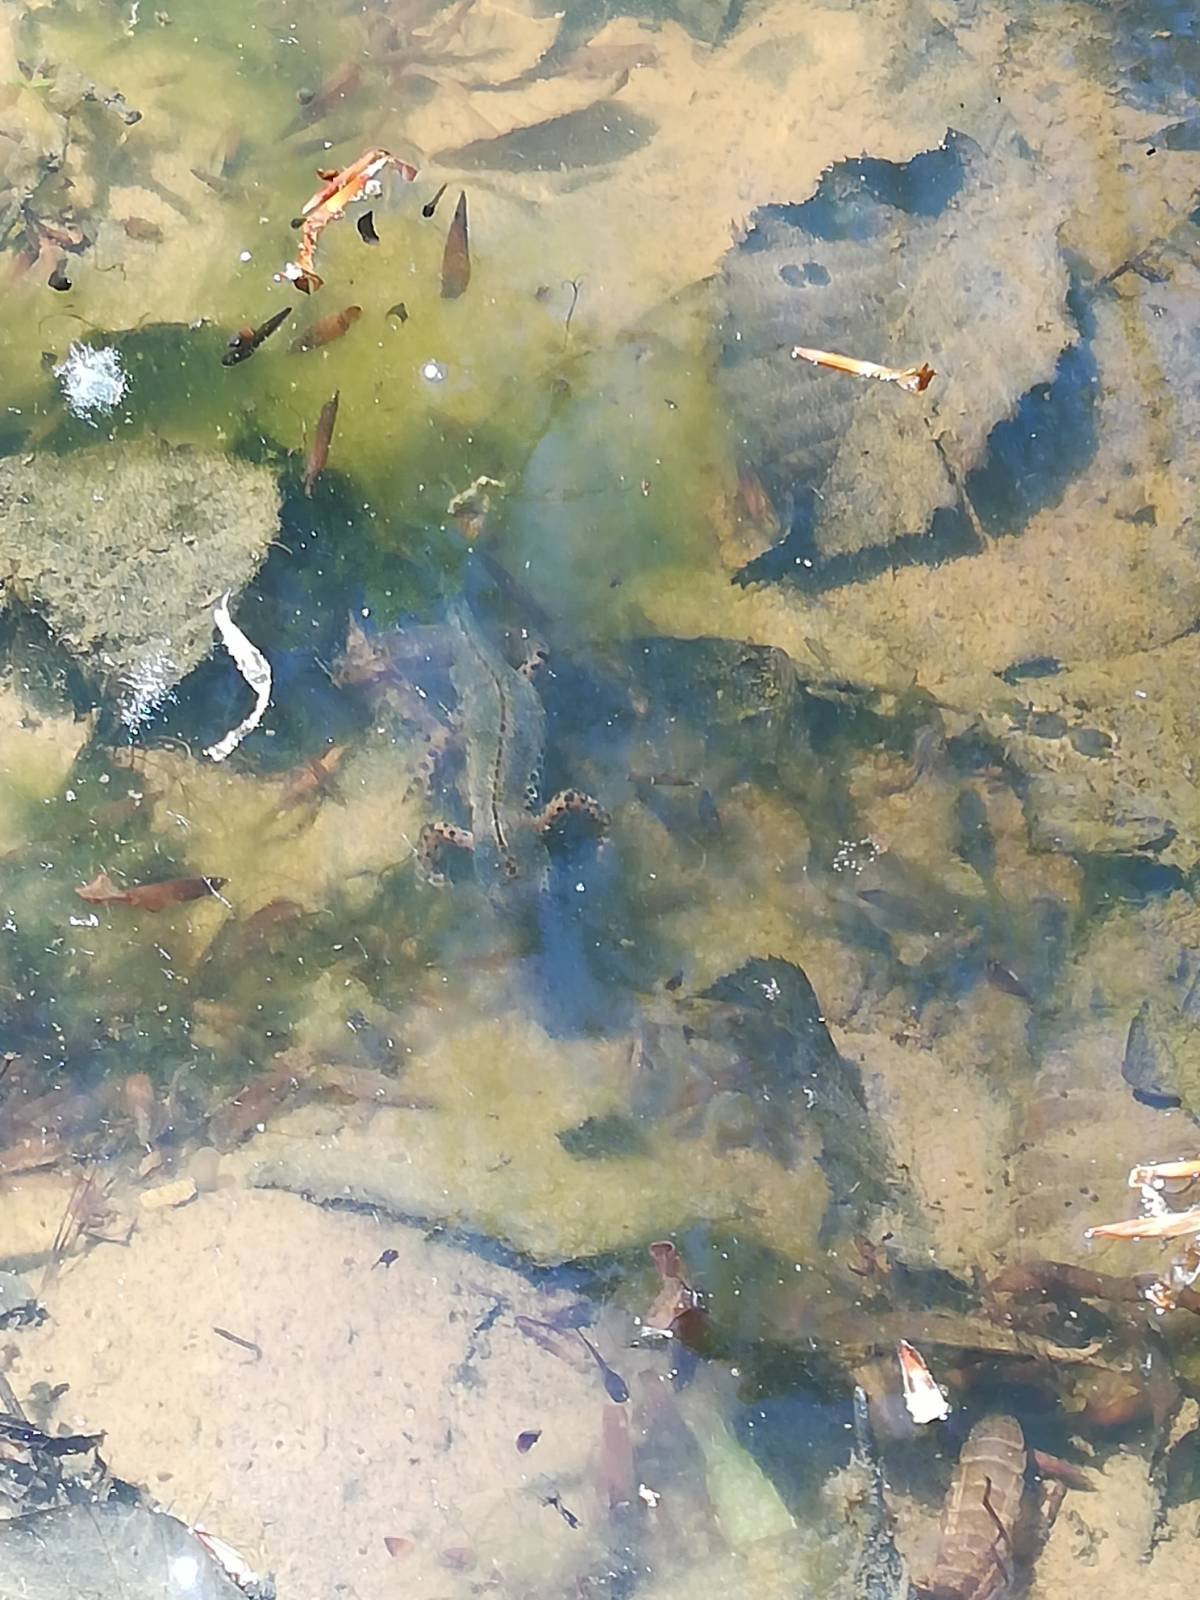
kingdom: Animalia
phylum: Chordata
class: Amphibia
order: Caudata
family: Salamandridae
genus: Ichthyosaura
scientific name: Ichthyosaura alpestris
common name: Alpine newt
